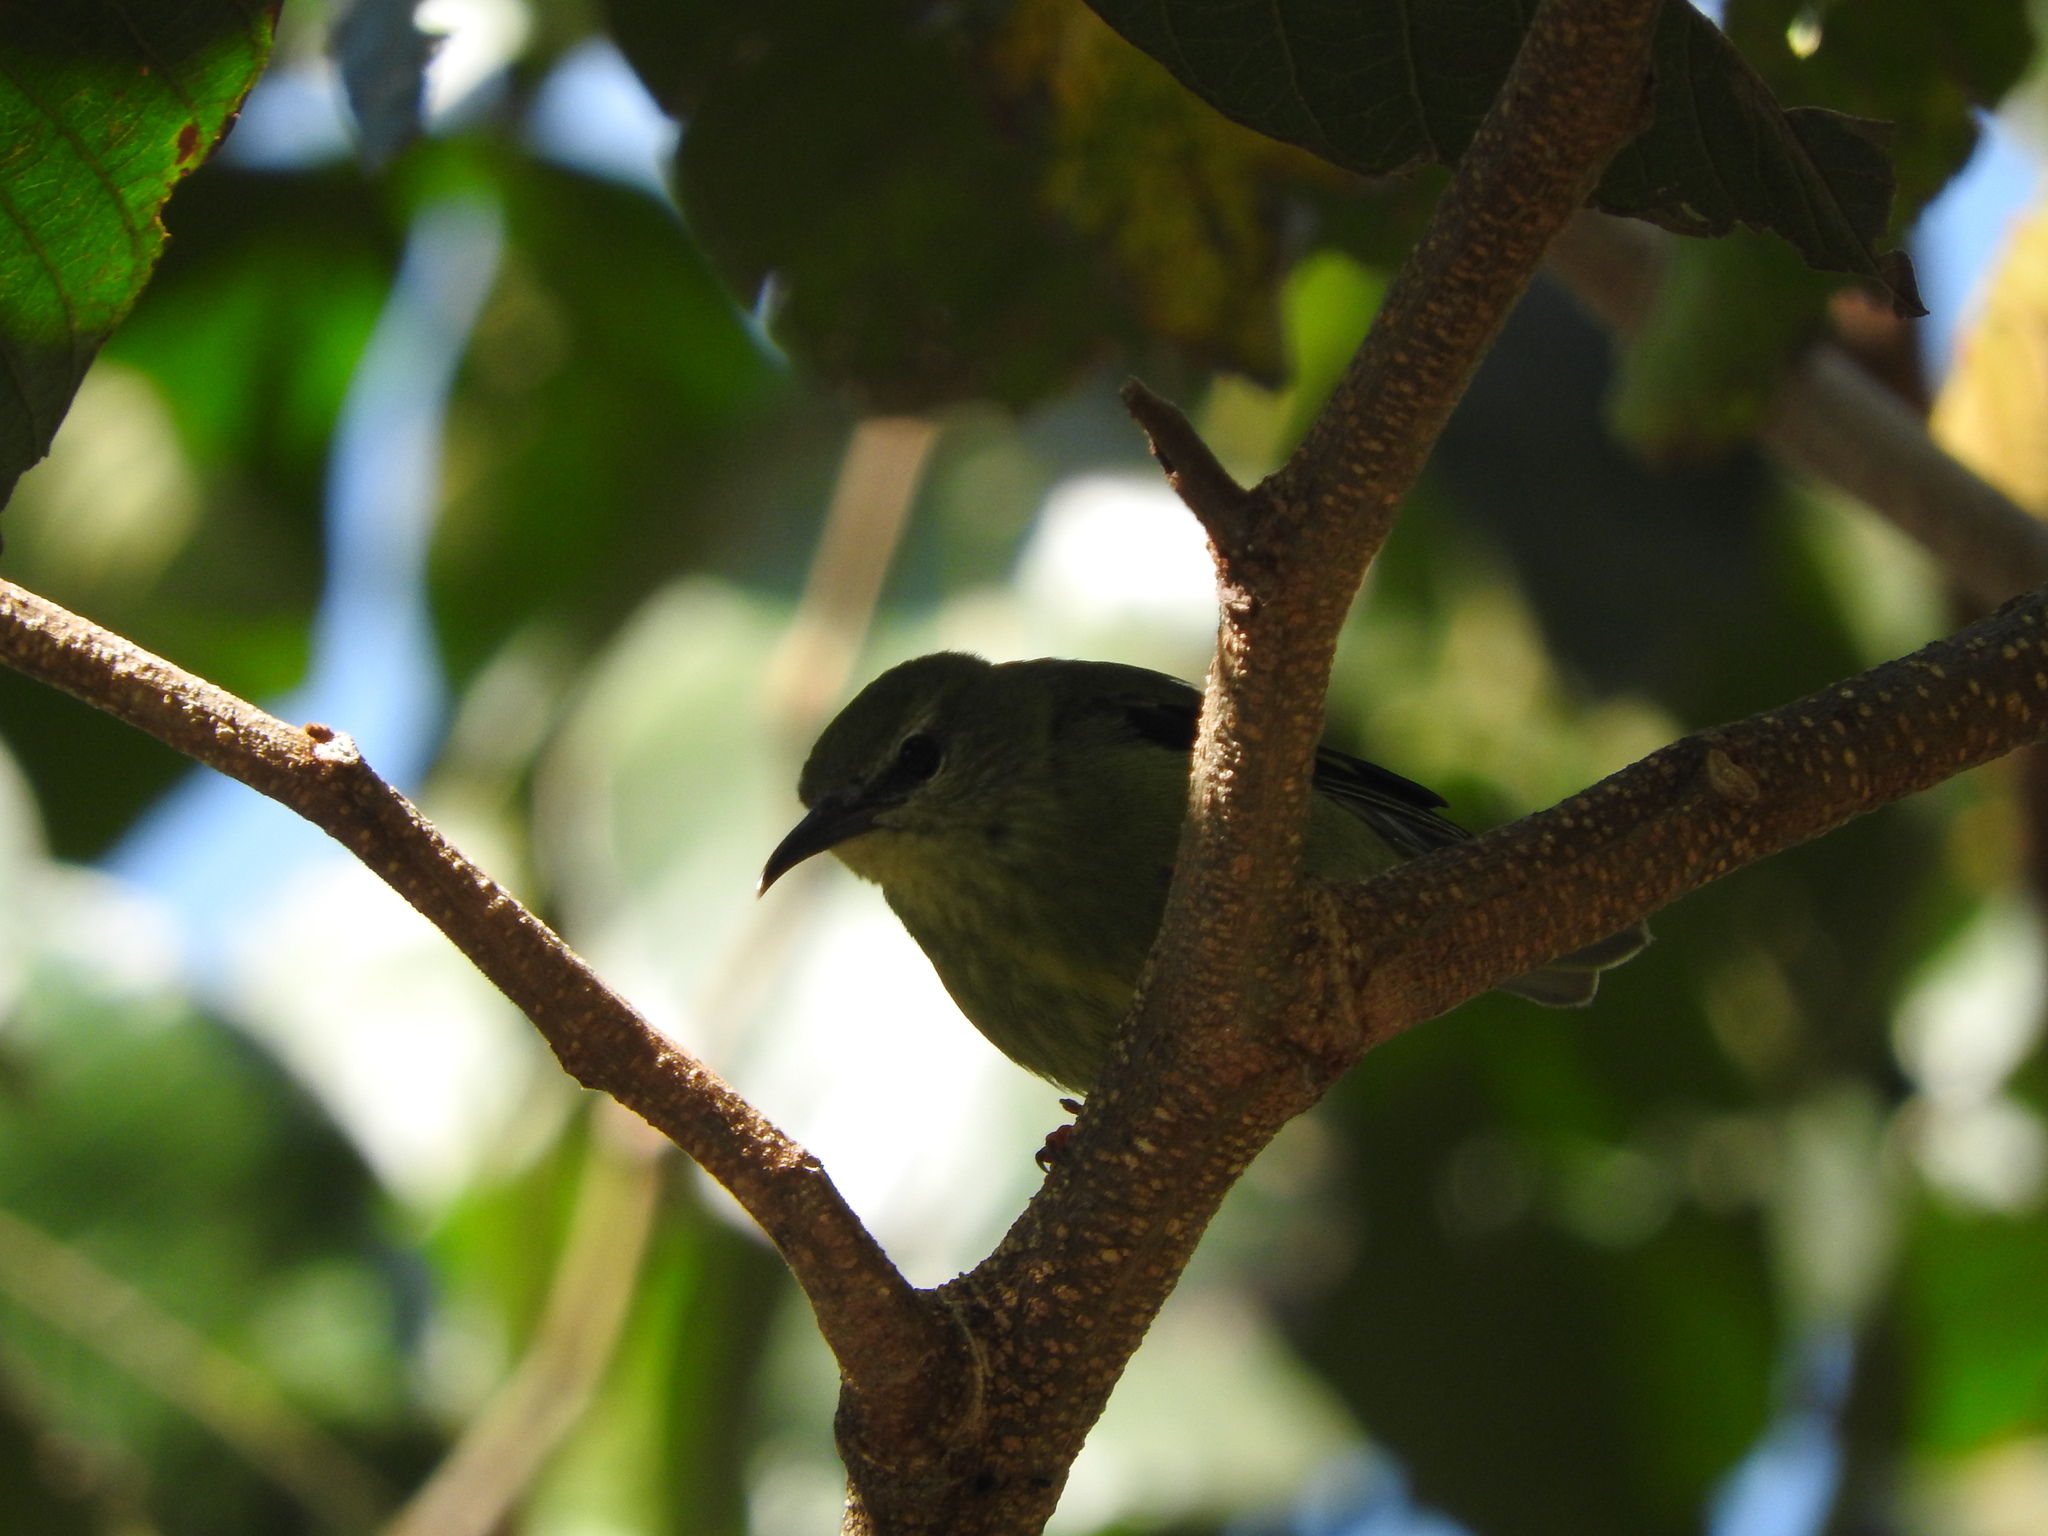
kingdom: Animalia
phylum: Chordata
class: Aves
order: Passeriformes
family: Thraupidae
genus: Cyanerpes
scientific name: Cyanerpes cyaneus
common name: Red-legged honeycreeper
